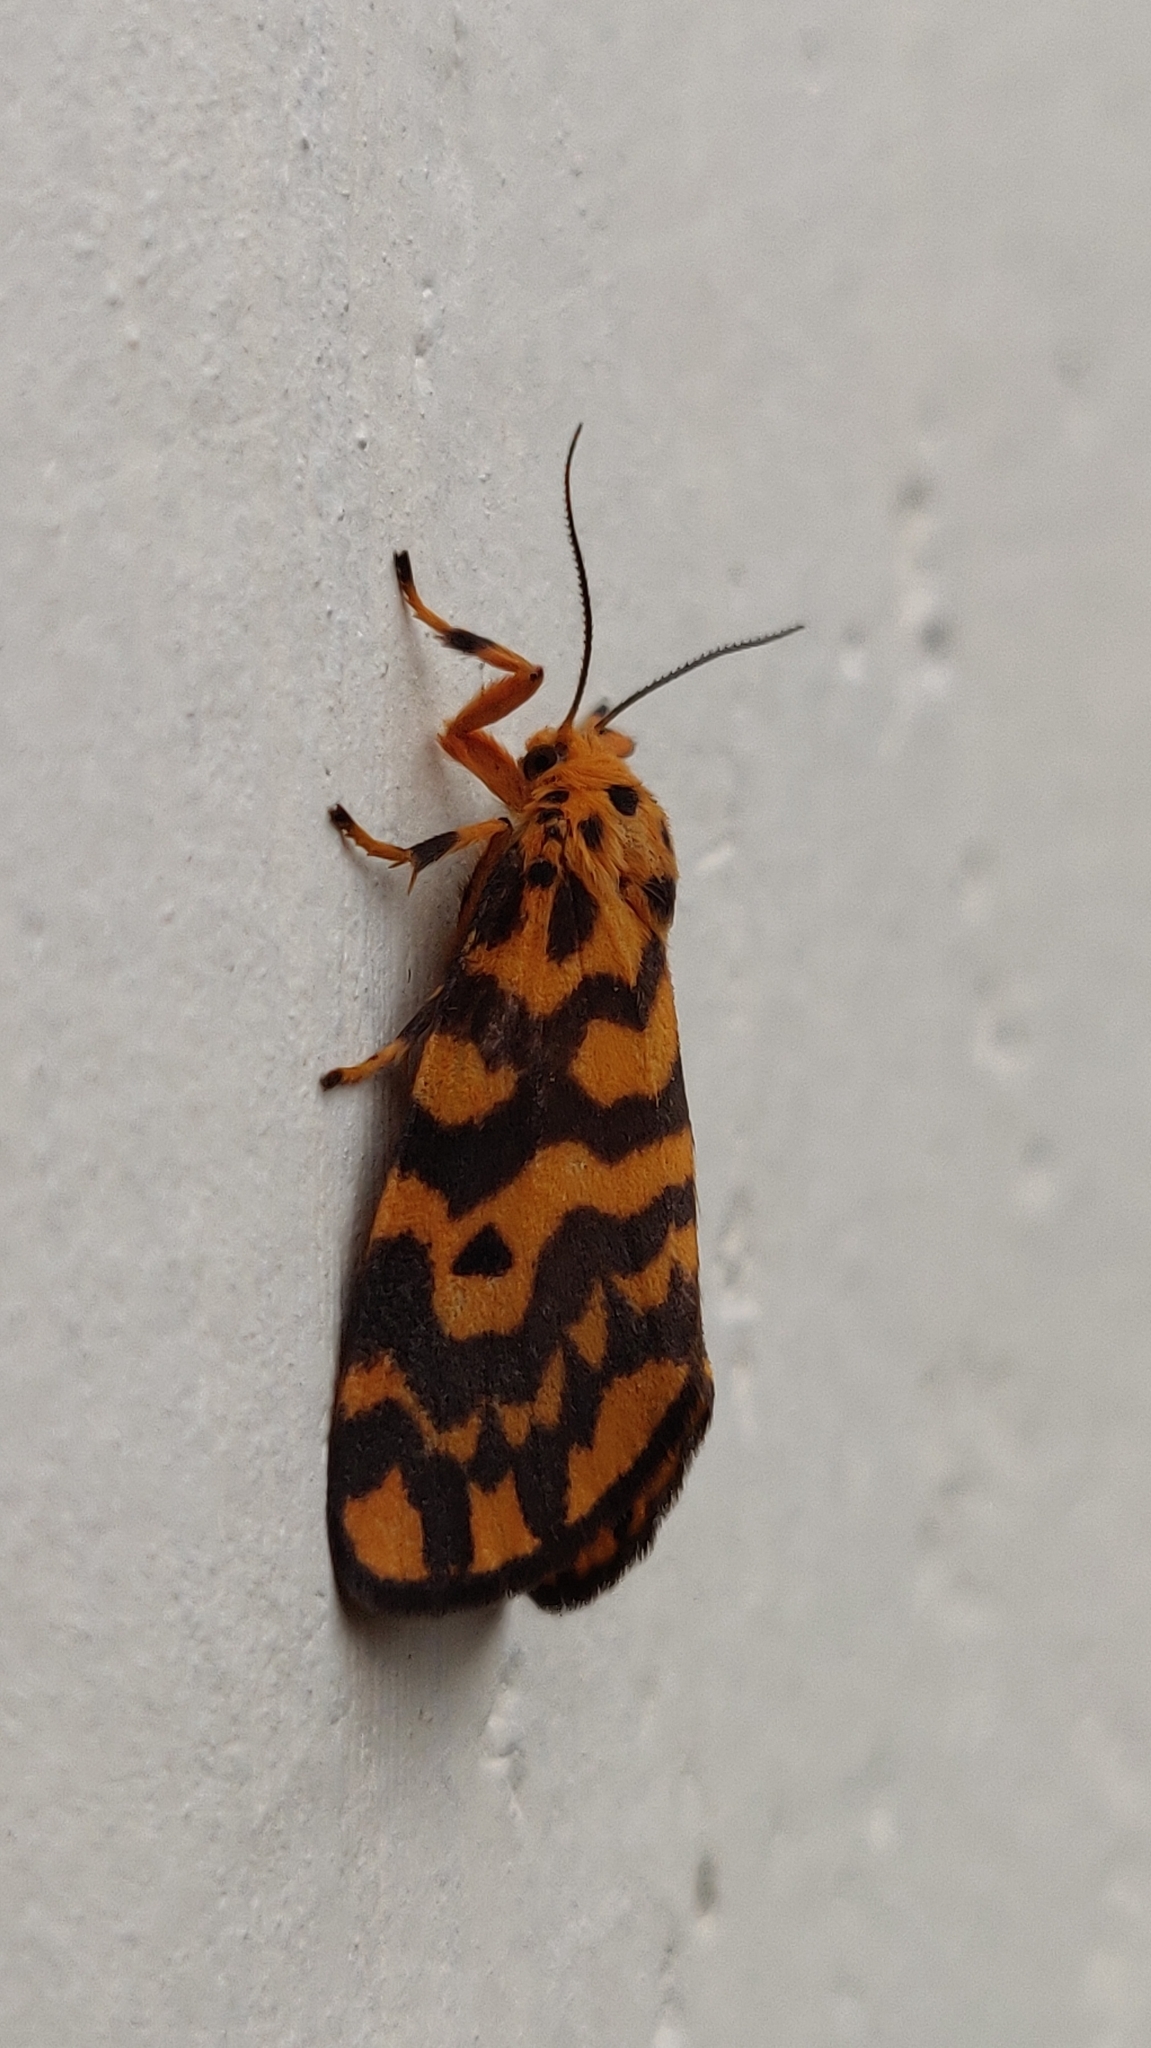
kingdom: Animalia
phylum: Arthropoda
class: Insecta
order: Lepidoptera
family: Erebidae
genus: Nepita
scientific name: Nepita conferta
